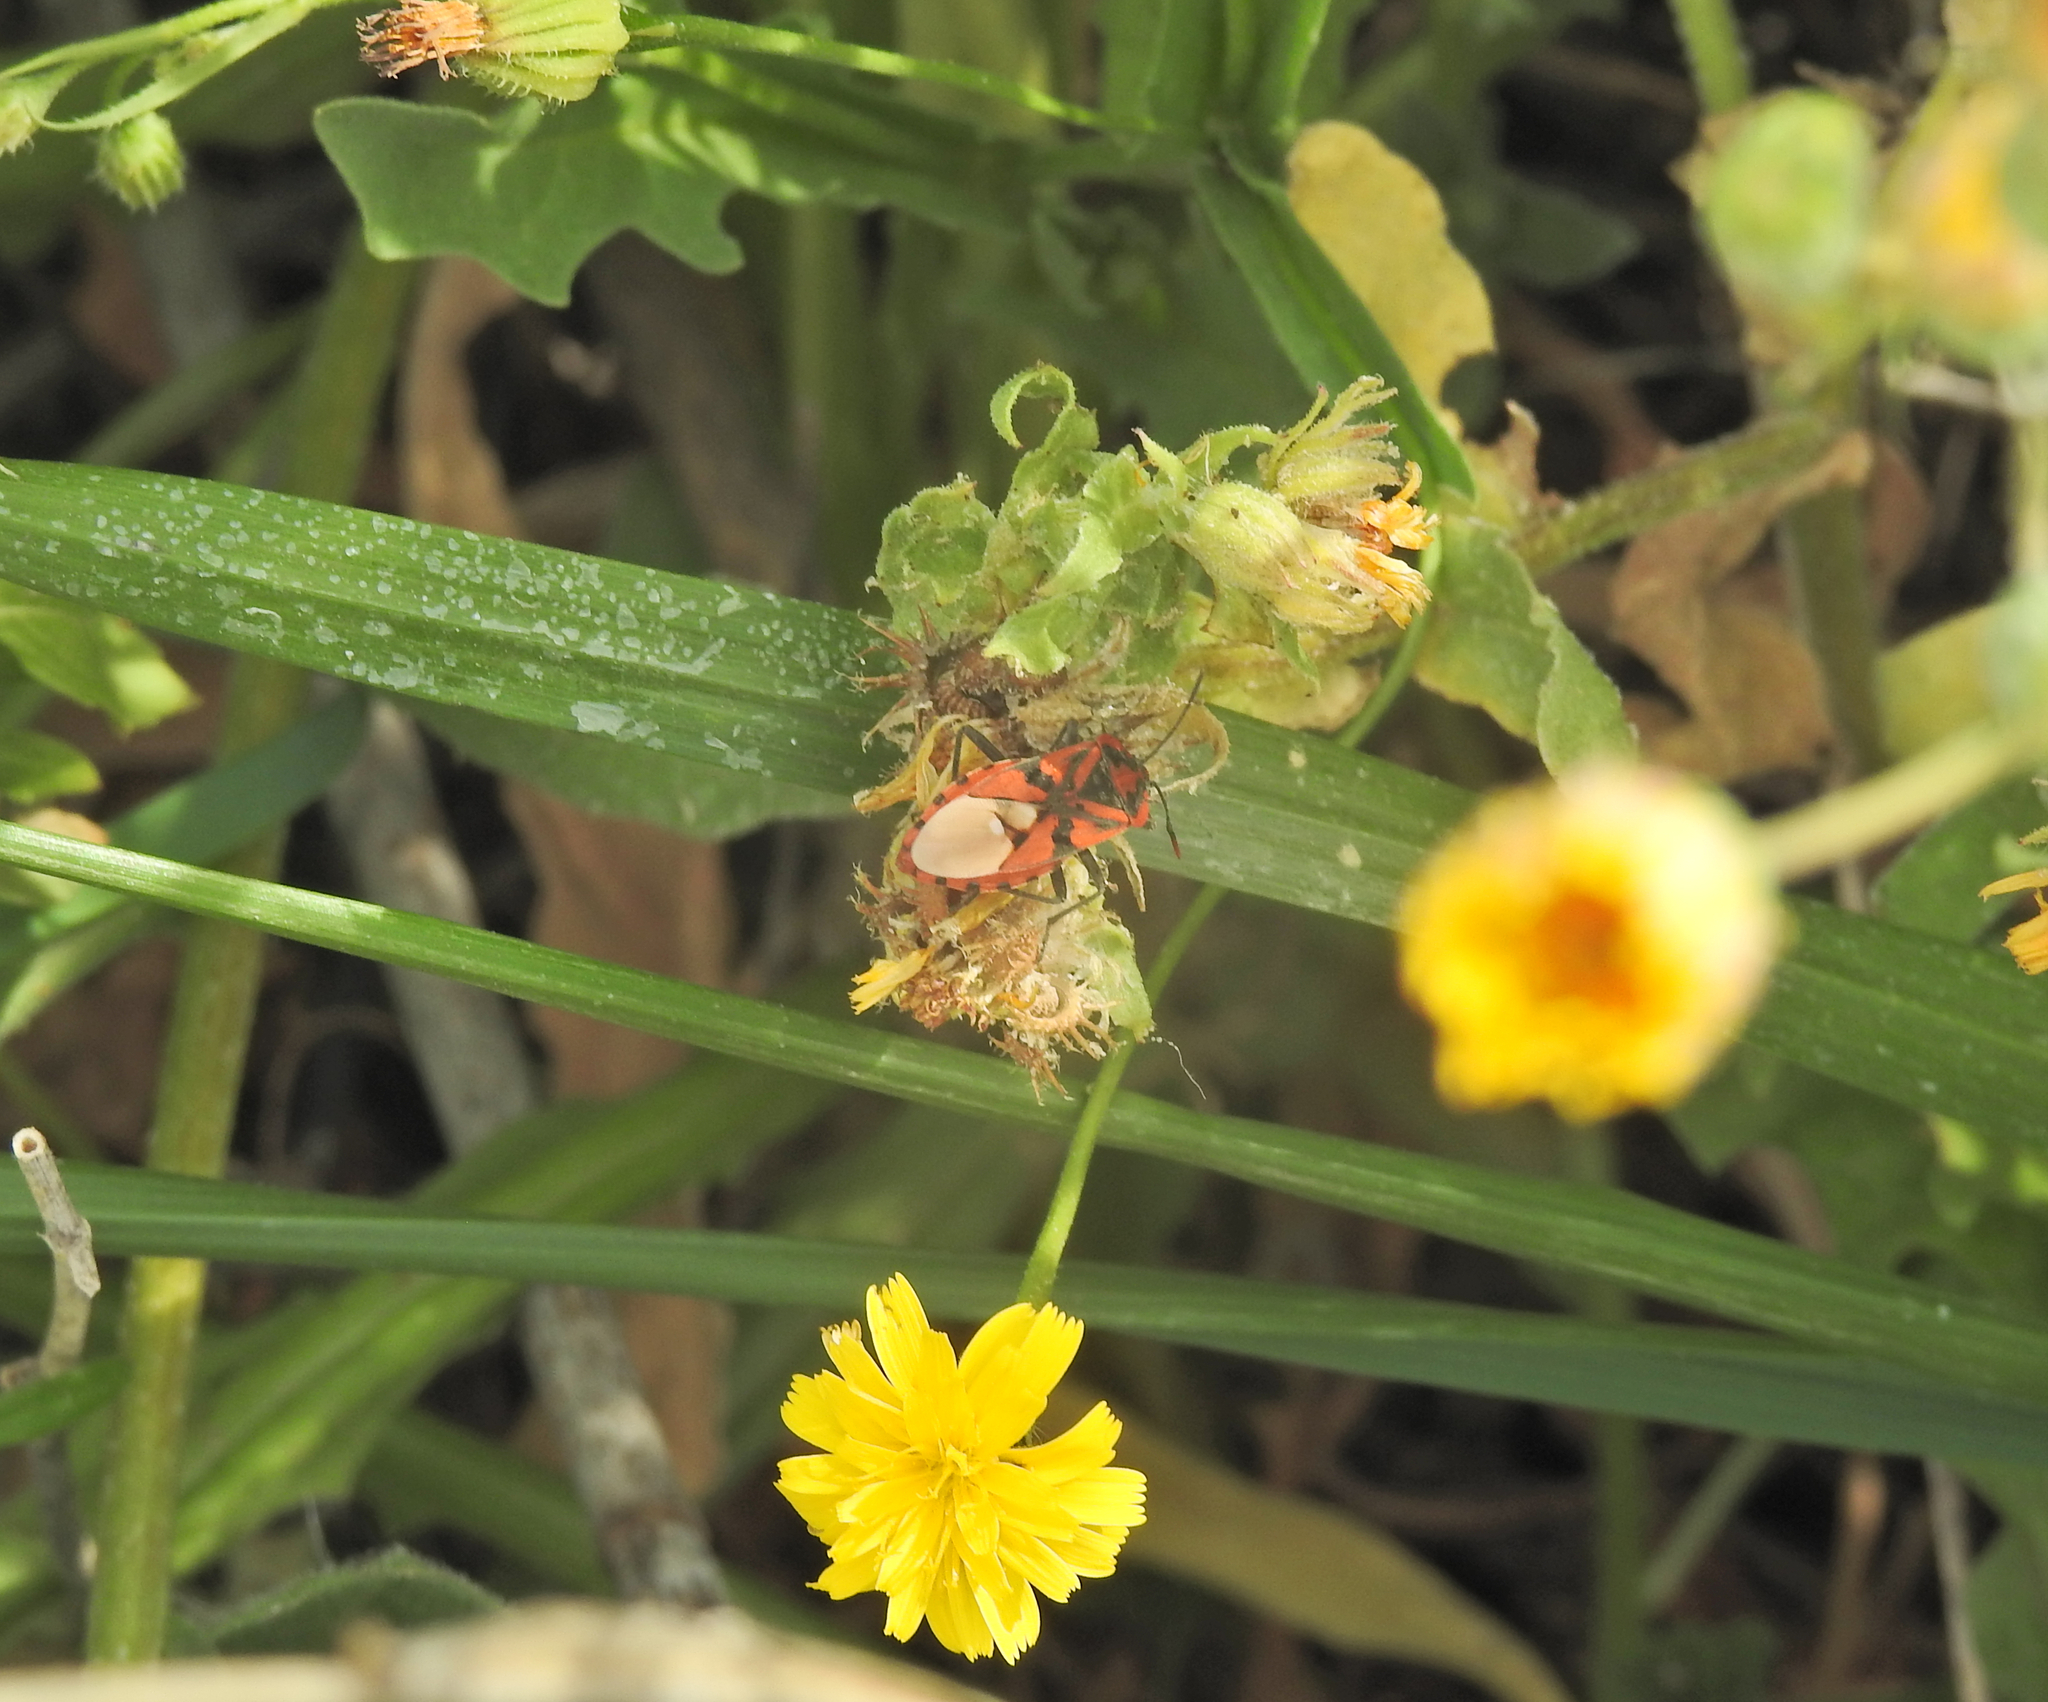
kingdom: Animalia
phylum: Arthropoda
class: Insecta
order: Hemiptera
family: Lygaeidae
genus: Spilostethus
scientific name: Spilostethus pandurus
